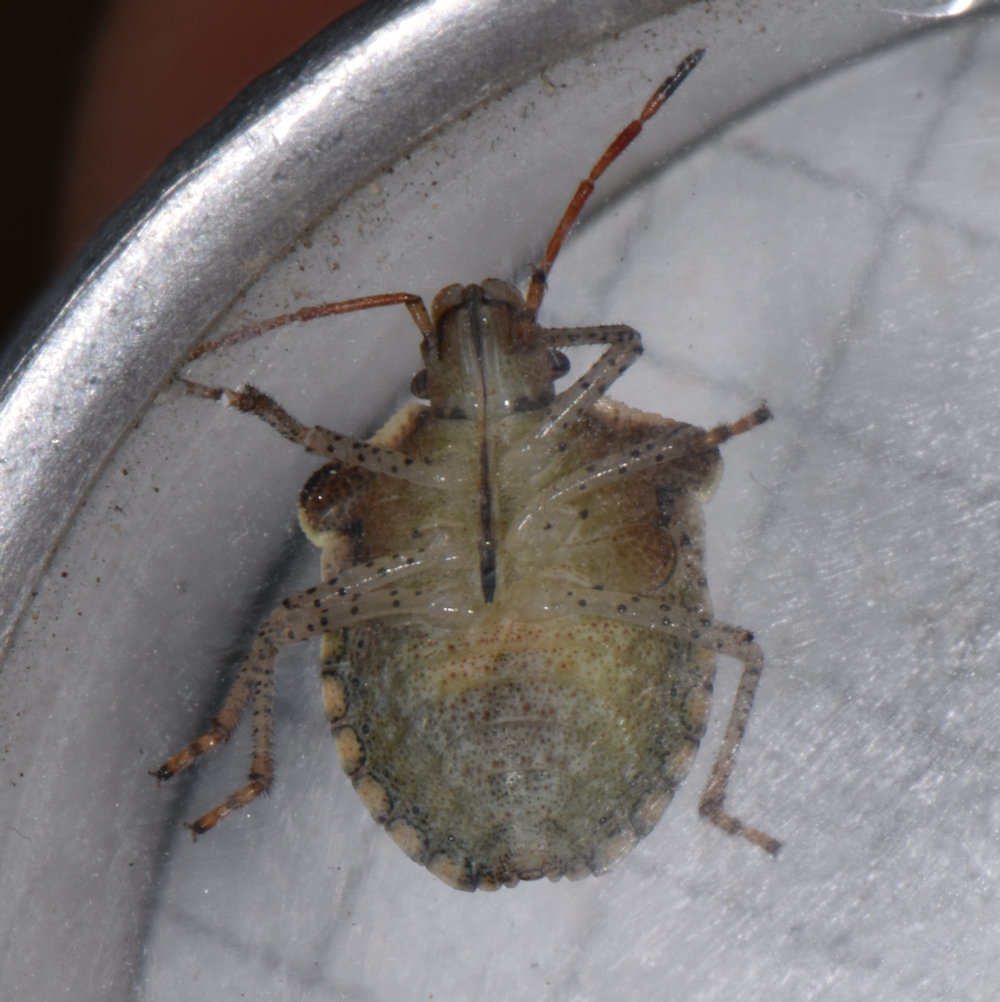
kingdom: Animalia
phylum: Arthropoda
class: Insecta
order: Hemiptera
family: Pentatomidae
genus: Euschistus
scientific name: Euschistus tristigmus
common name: Dusky stink bug
